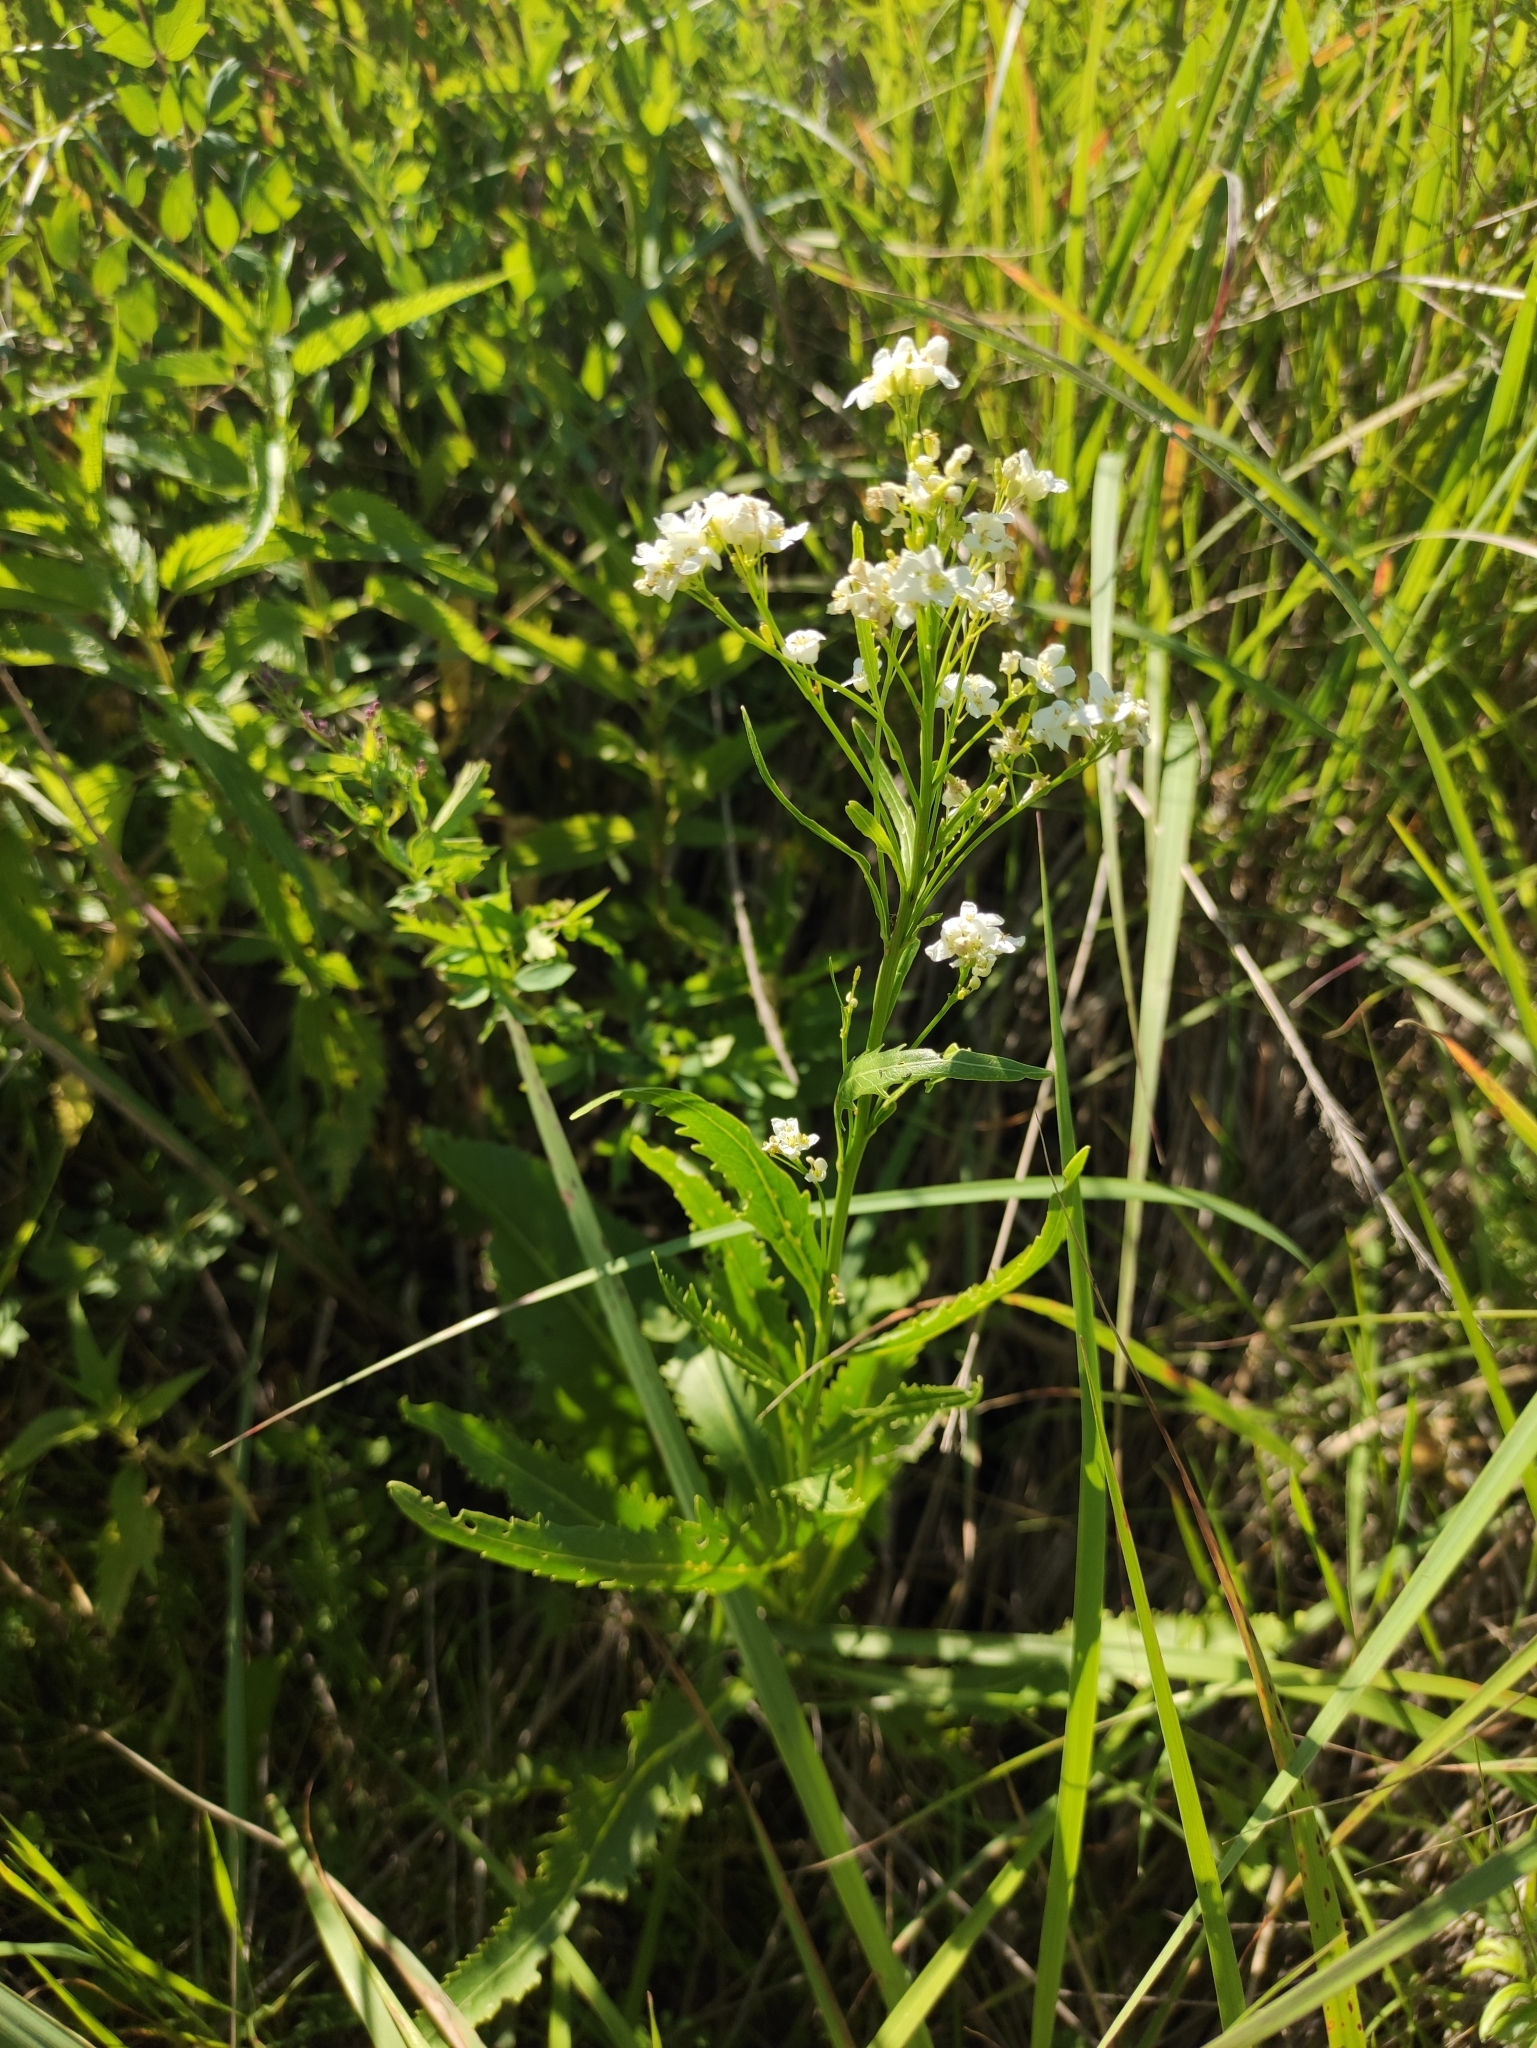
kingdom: Plantae
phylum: Tracheophyta
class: Magnoliopsida
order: Brassicales
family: Brassicaceae
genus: Armoracia
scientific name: Armoracia rusticana
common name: Horseradish
